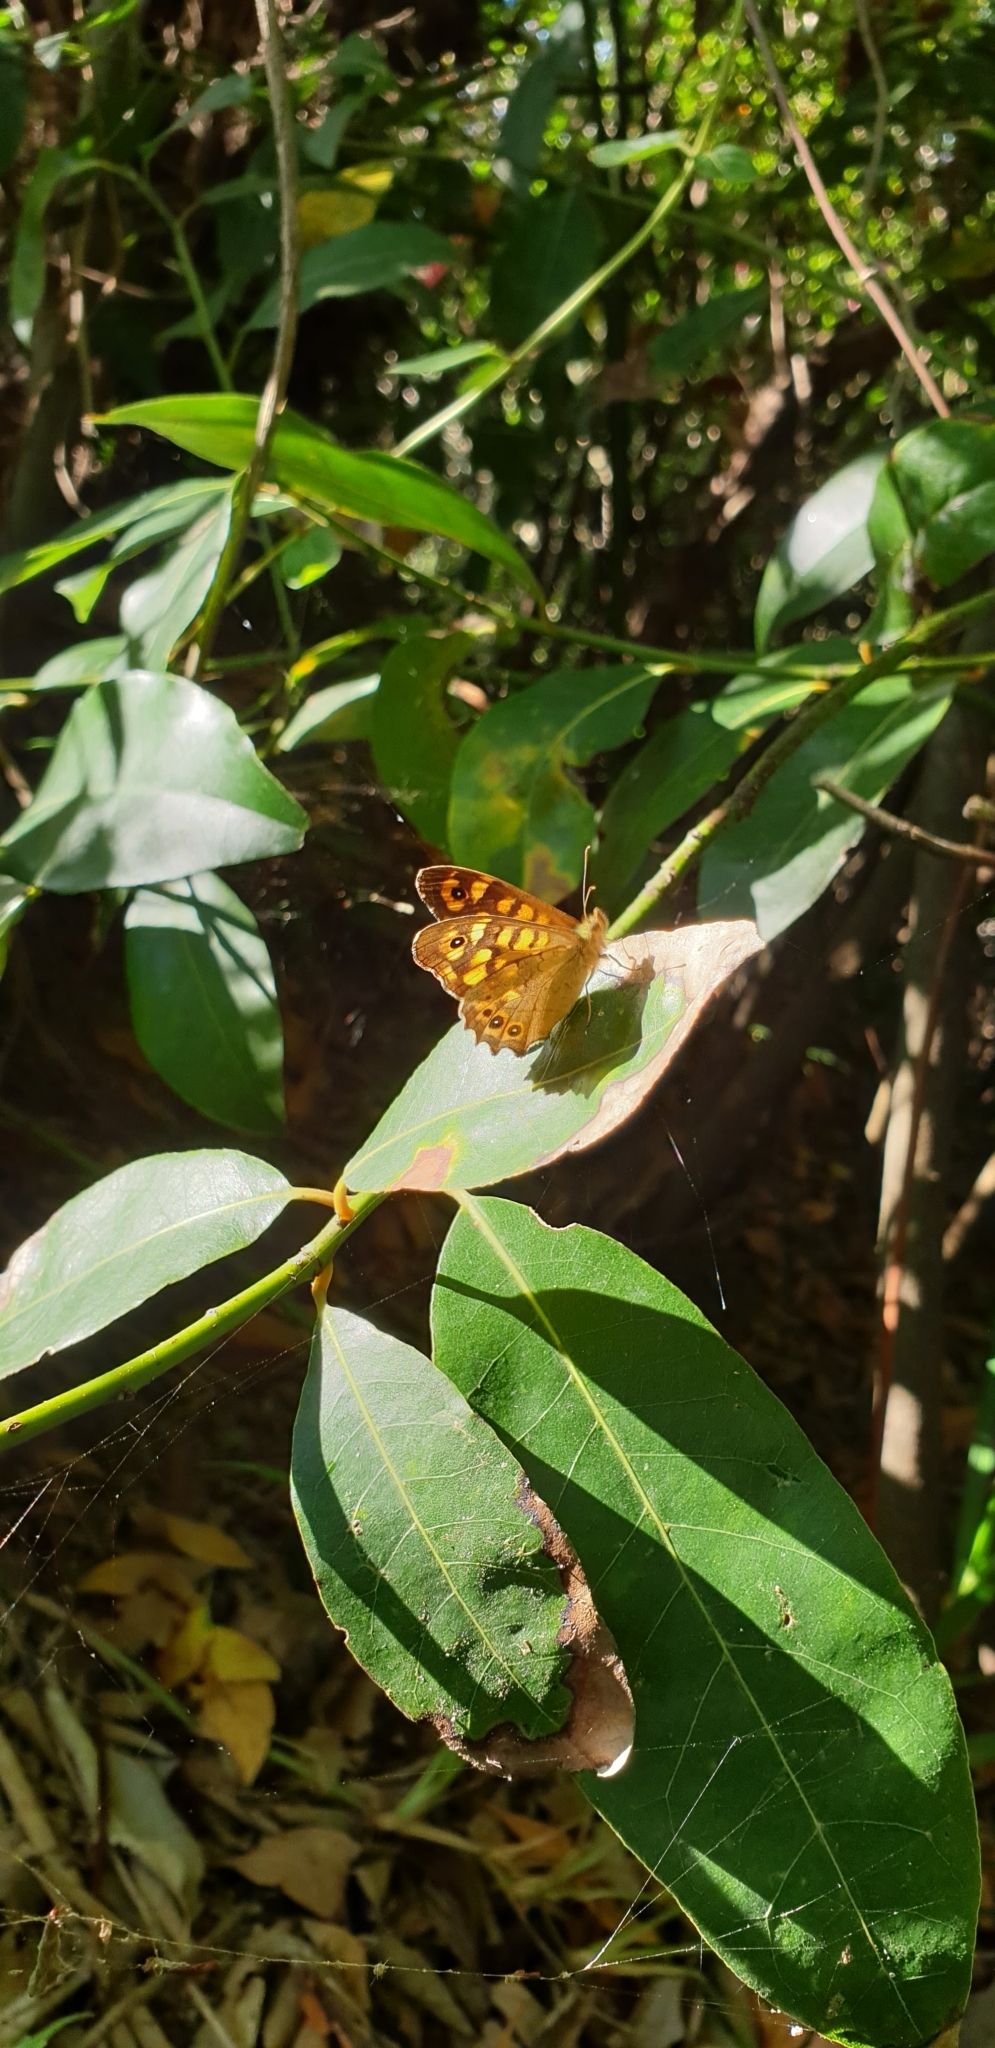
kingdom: Animalia
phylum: Arthropoda
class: Insecta
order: Lepidoptera
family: Nymphalidae
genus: Pararge
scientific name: Pararge aegeria
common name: Speckled wood
